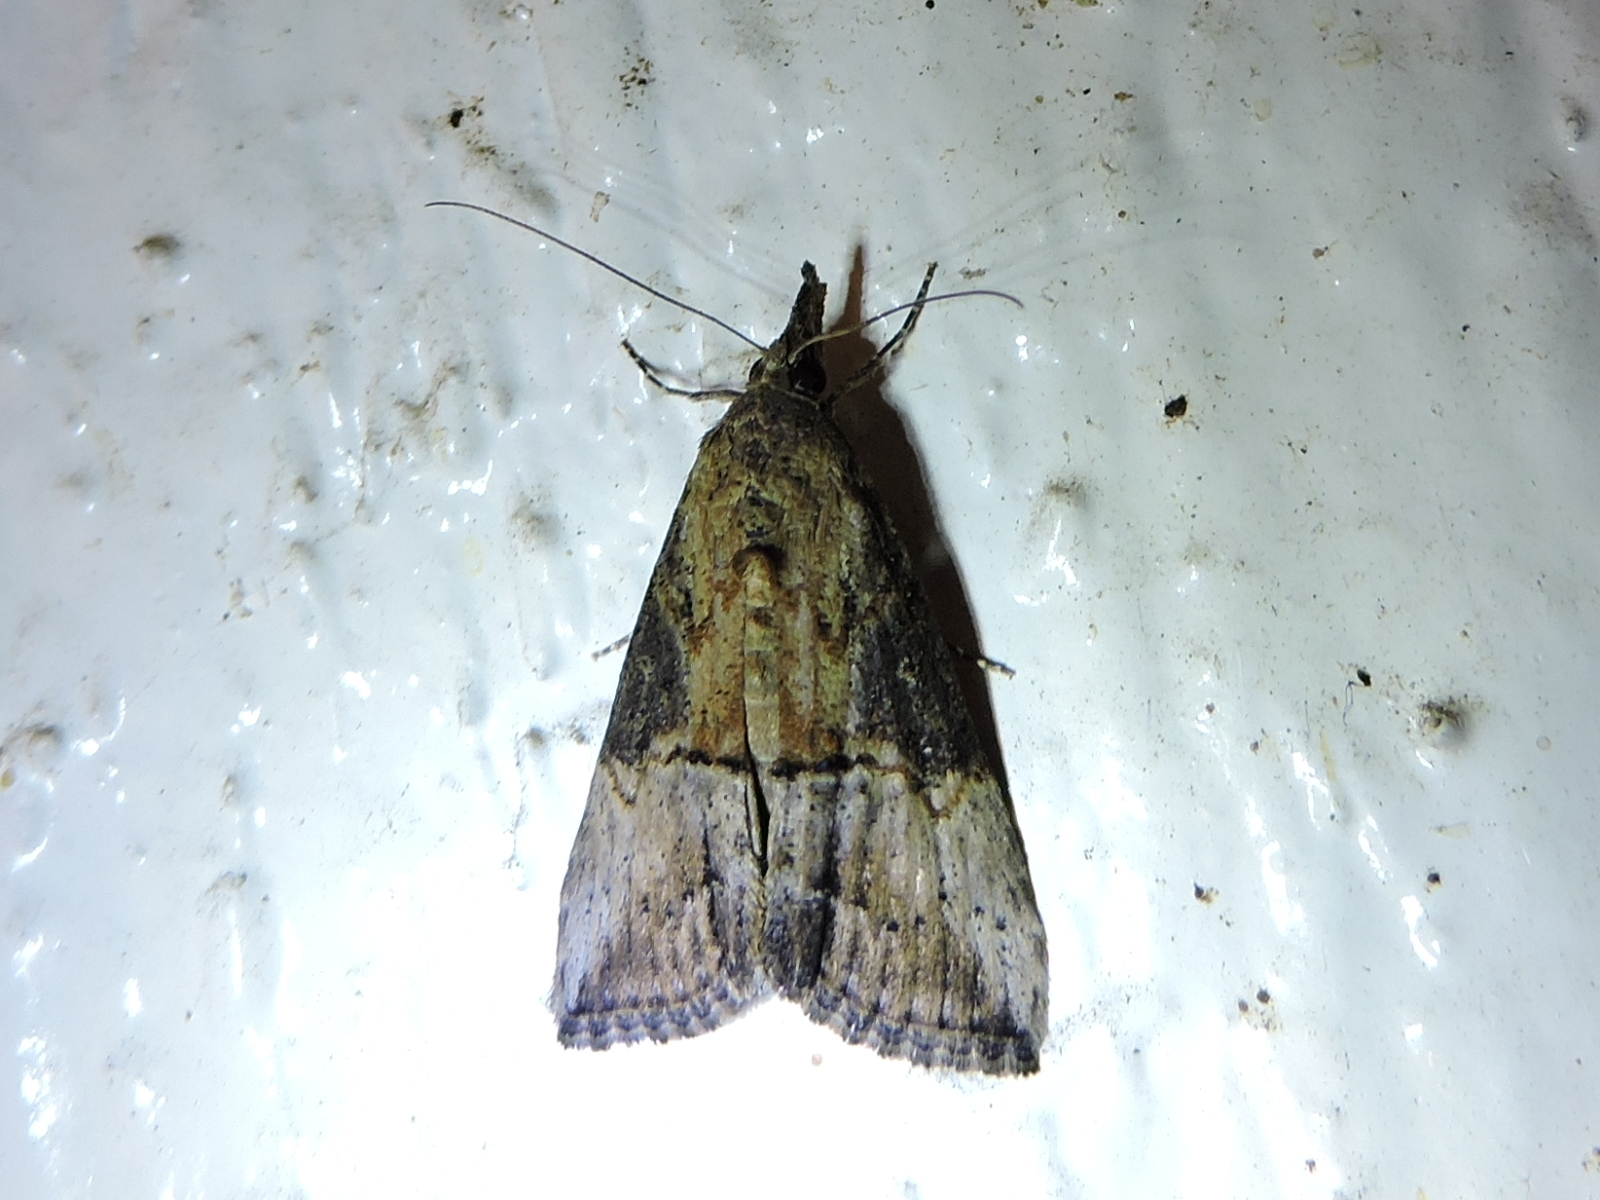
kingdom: Animalia
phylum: Arthropoda
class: Insecta
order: Lepidoptera
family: Erebidae
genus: Hypena
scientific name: Hypena scabra
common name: Green cloverworm
